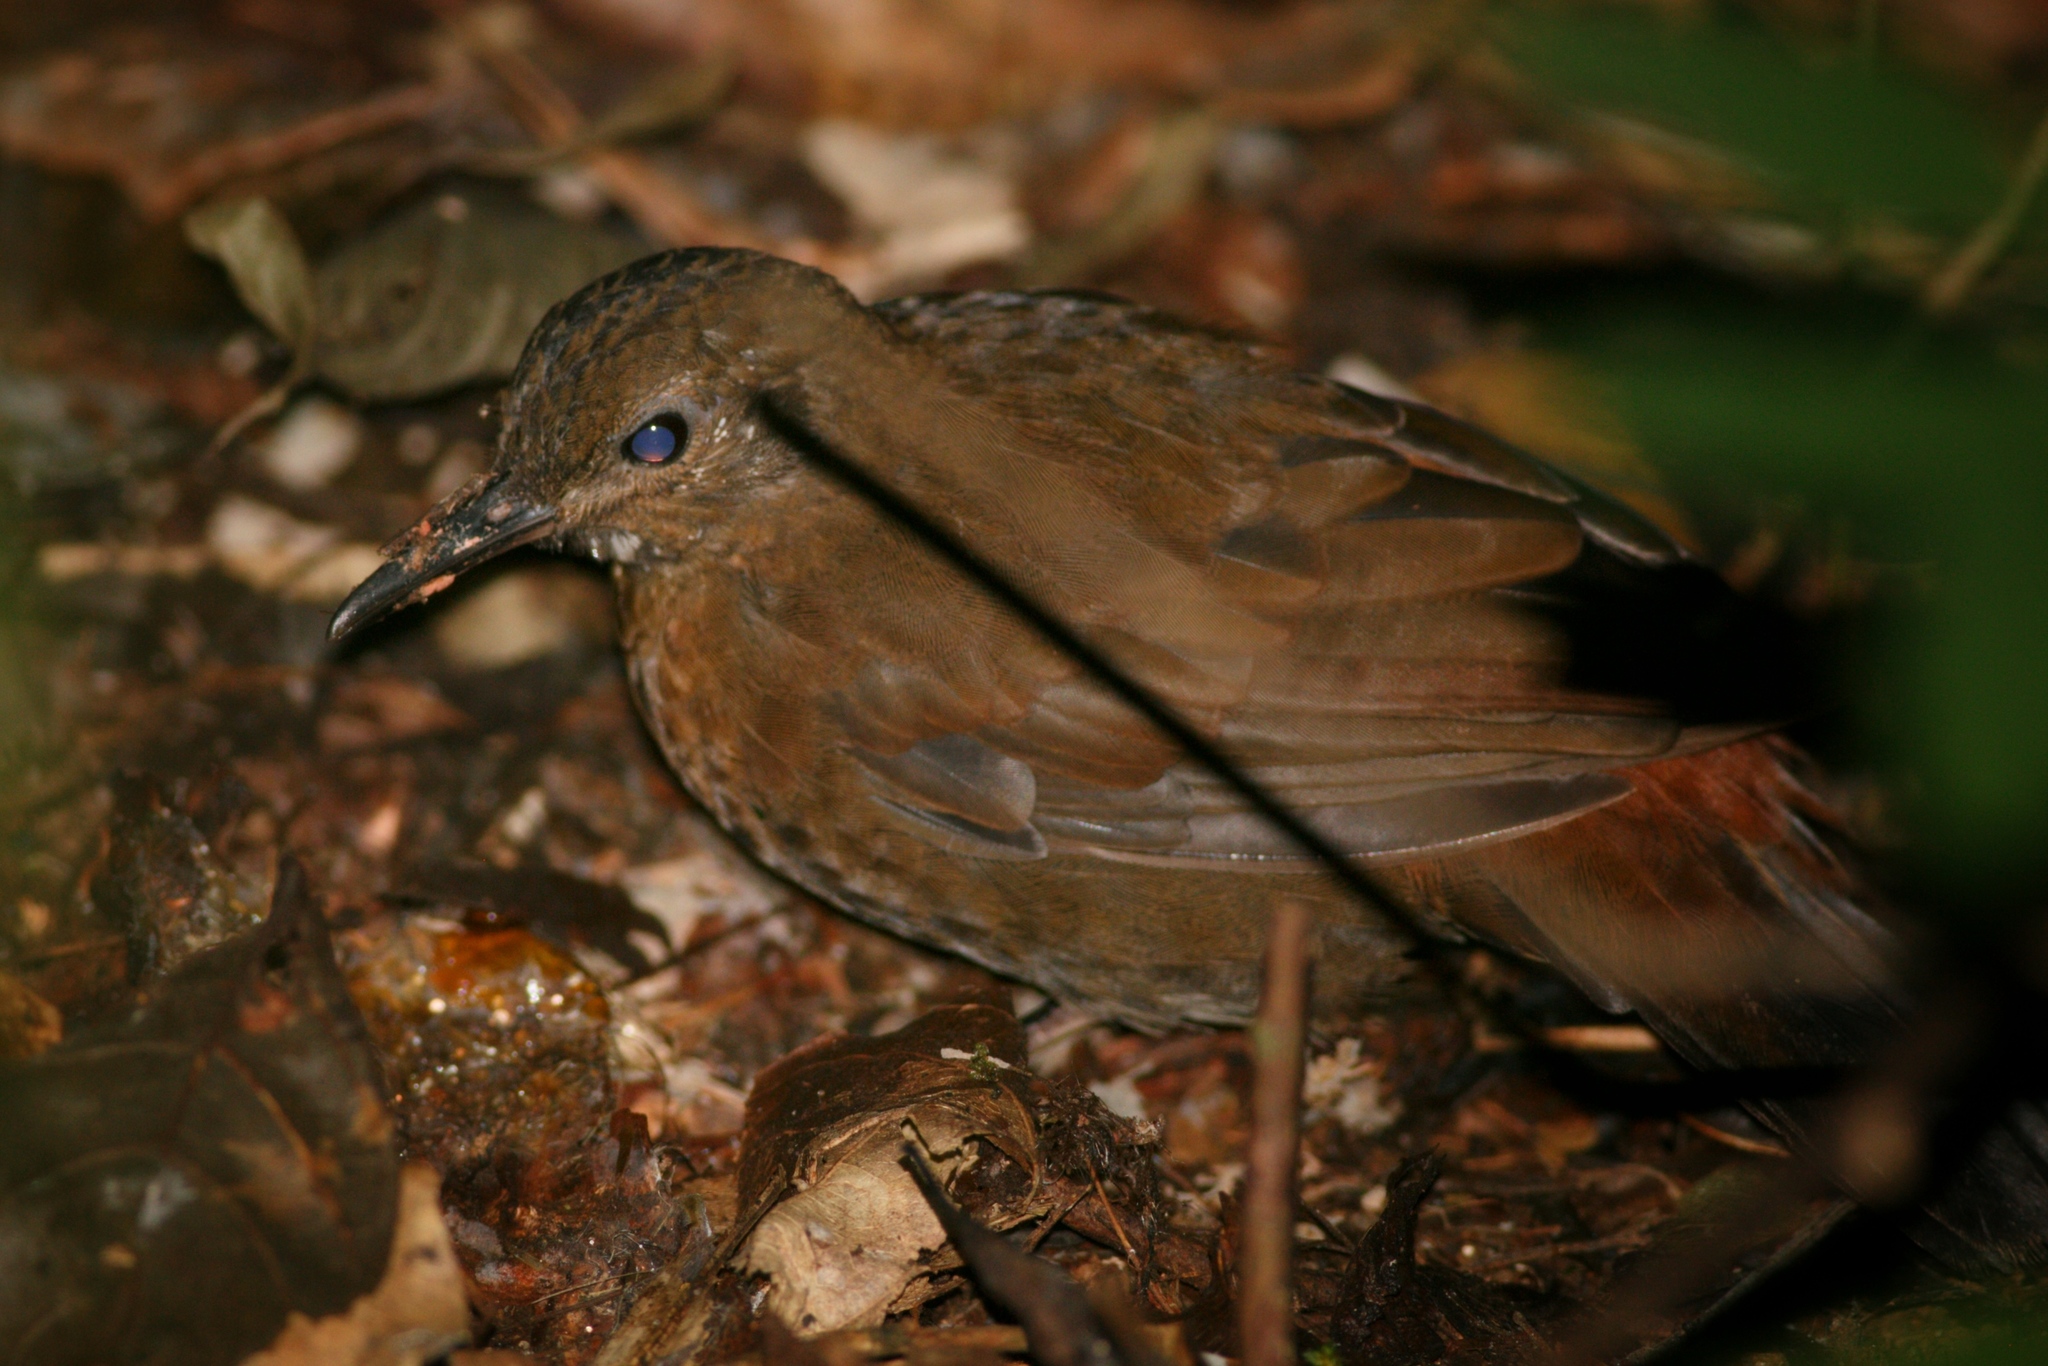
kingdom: Animalia
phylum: Chordata
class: Aves
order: Passeriformes
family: Furnariidae
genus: Sclerurus
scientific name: Sclerurus scansor
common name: Rufous-breasted leaftosser
